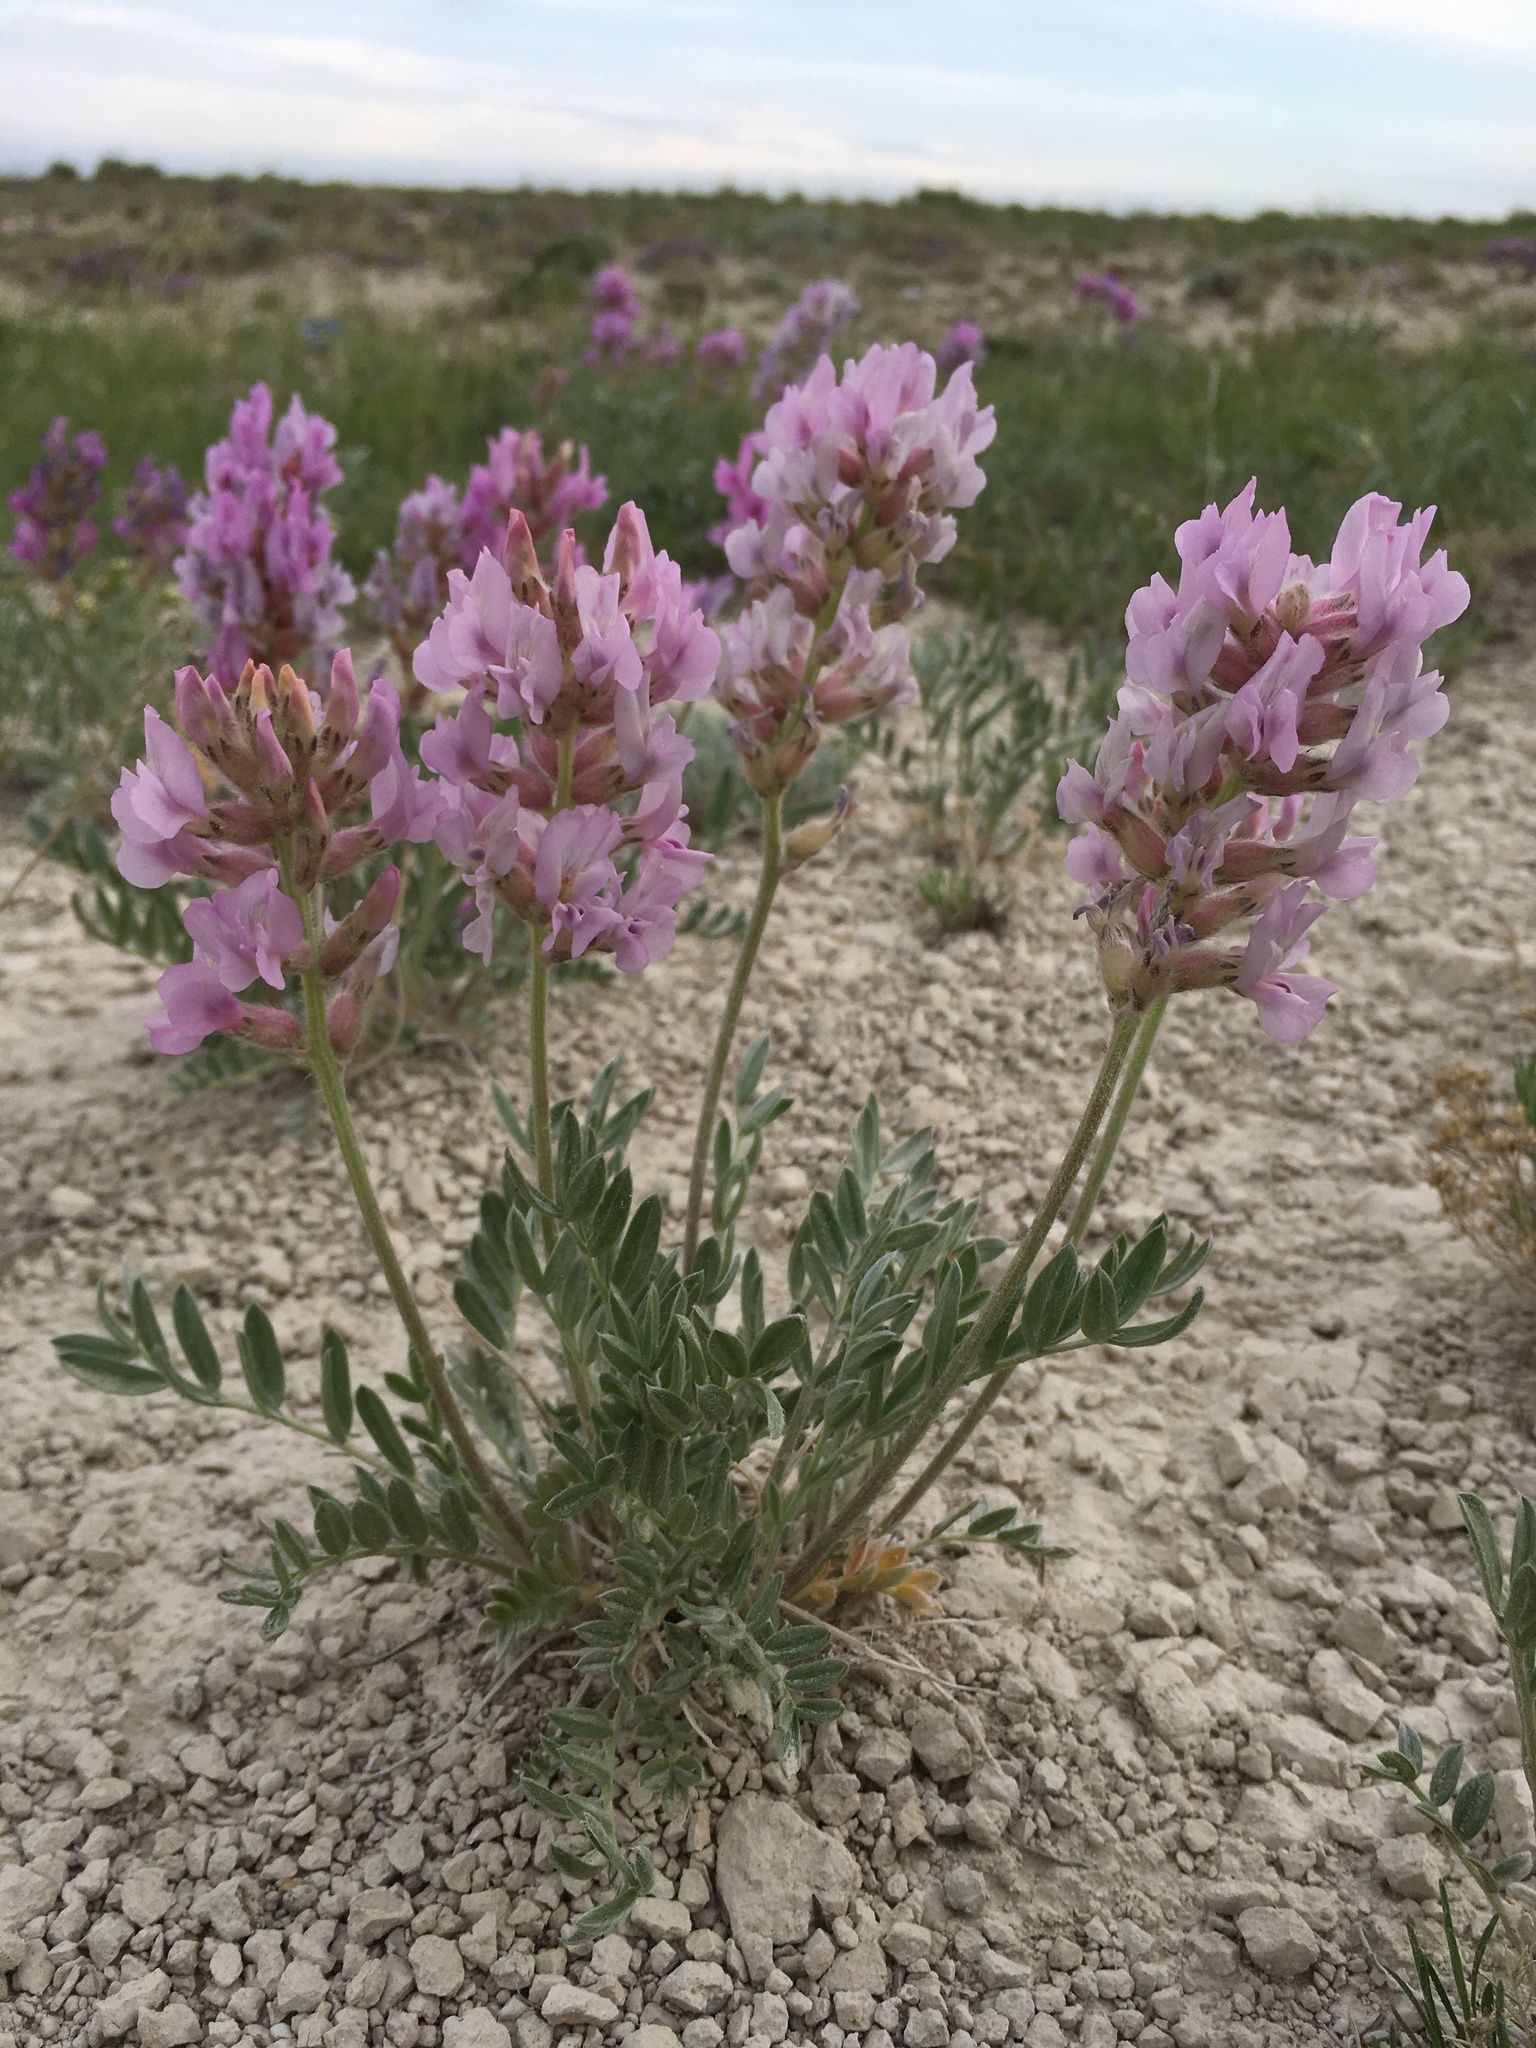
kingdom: Plantae
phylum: Tracheophyta
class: Magnoliopsida
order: Fabales
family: Fabaceae
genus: Oxytropis
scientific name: Oxytropis lambertii
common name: Purple locoweed
